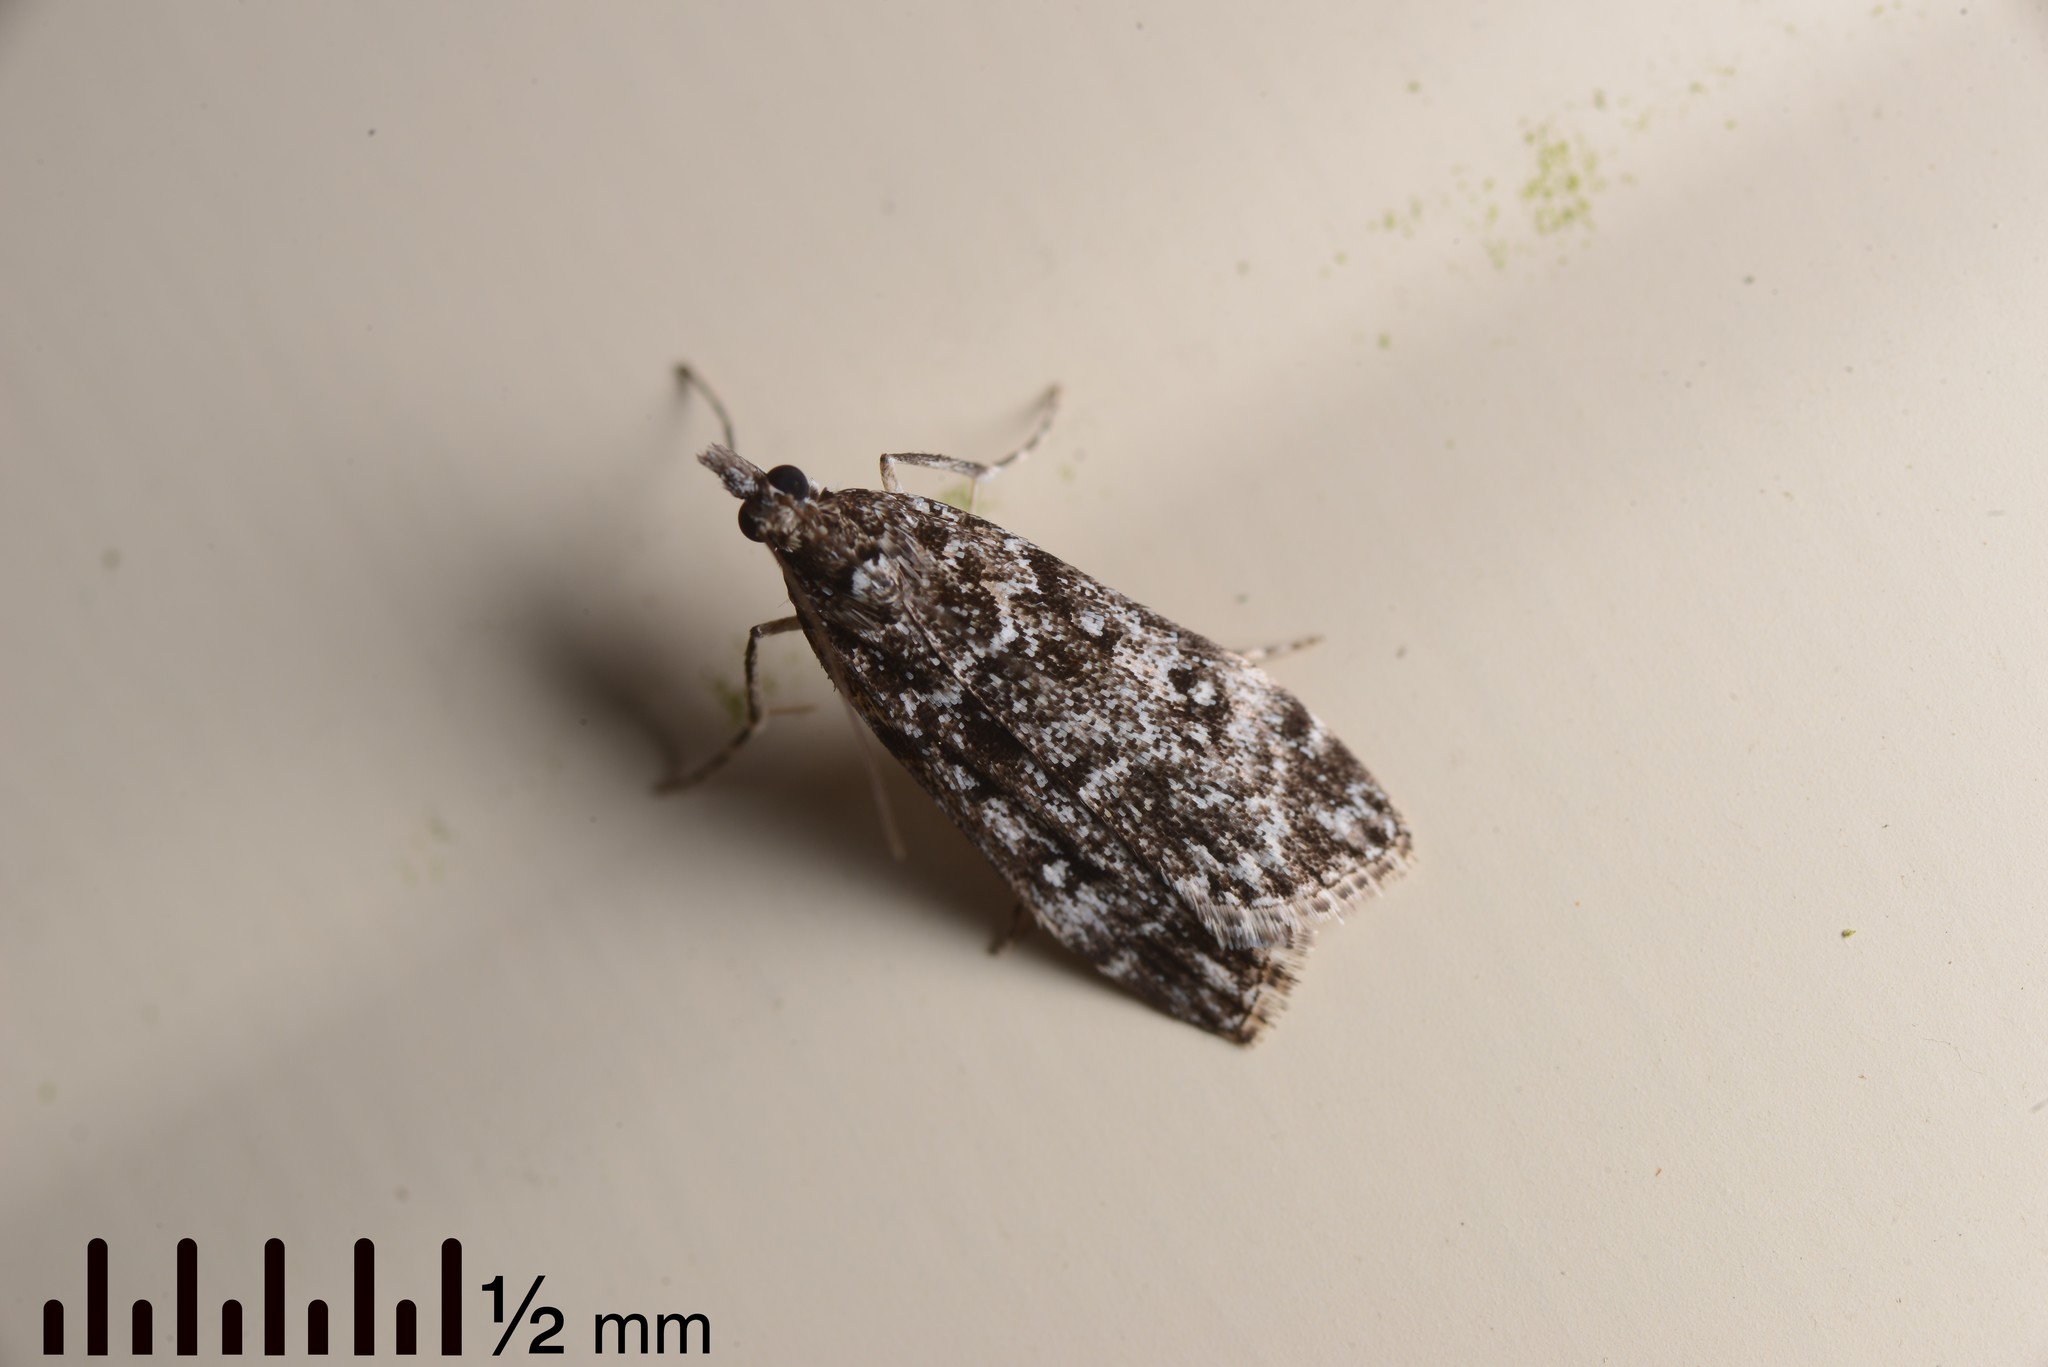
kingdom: Animalia
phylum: Arthropoda
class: Insecta
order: Lepidoptera
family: Crambidae
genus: Eudonia
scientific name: Eudonia philerga
